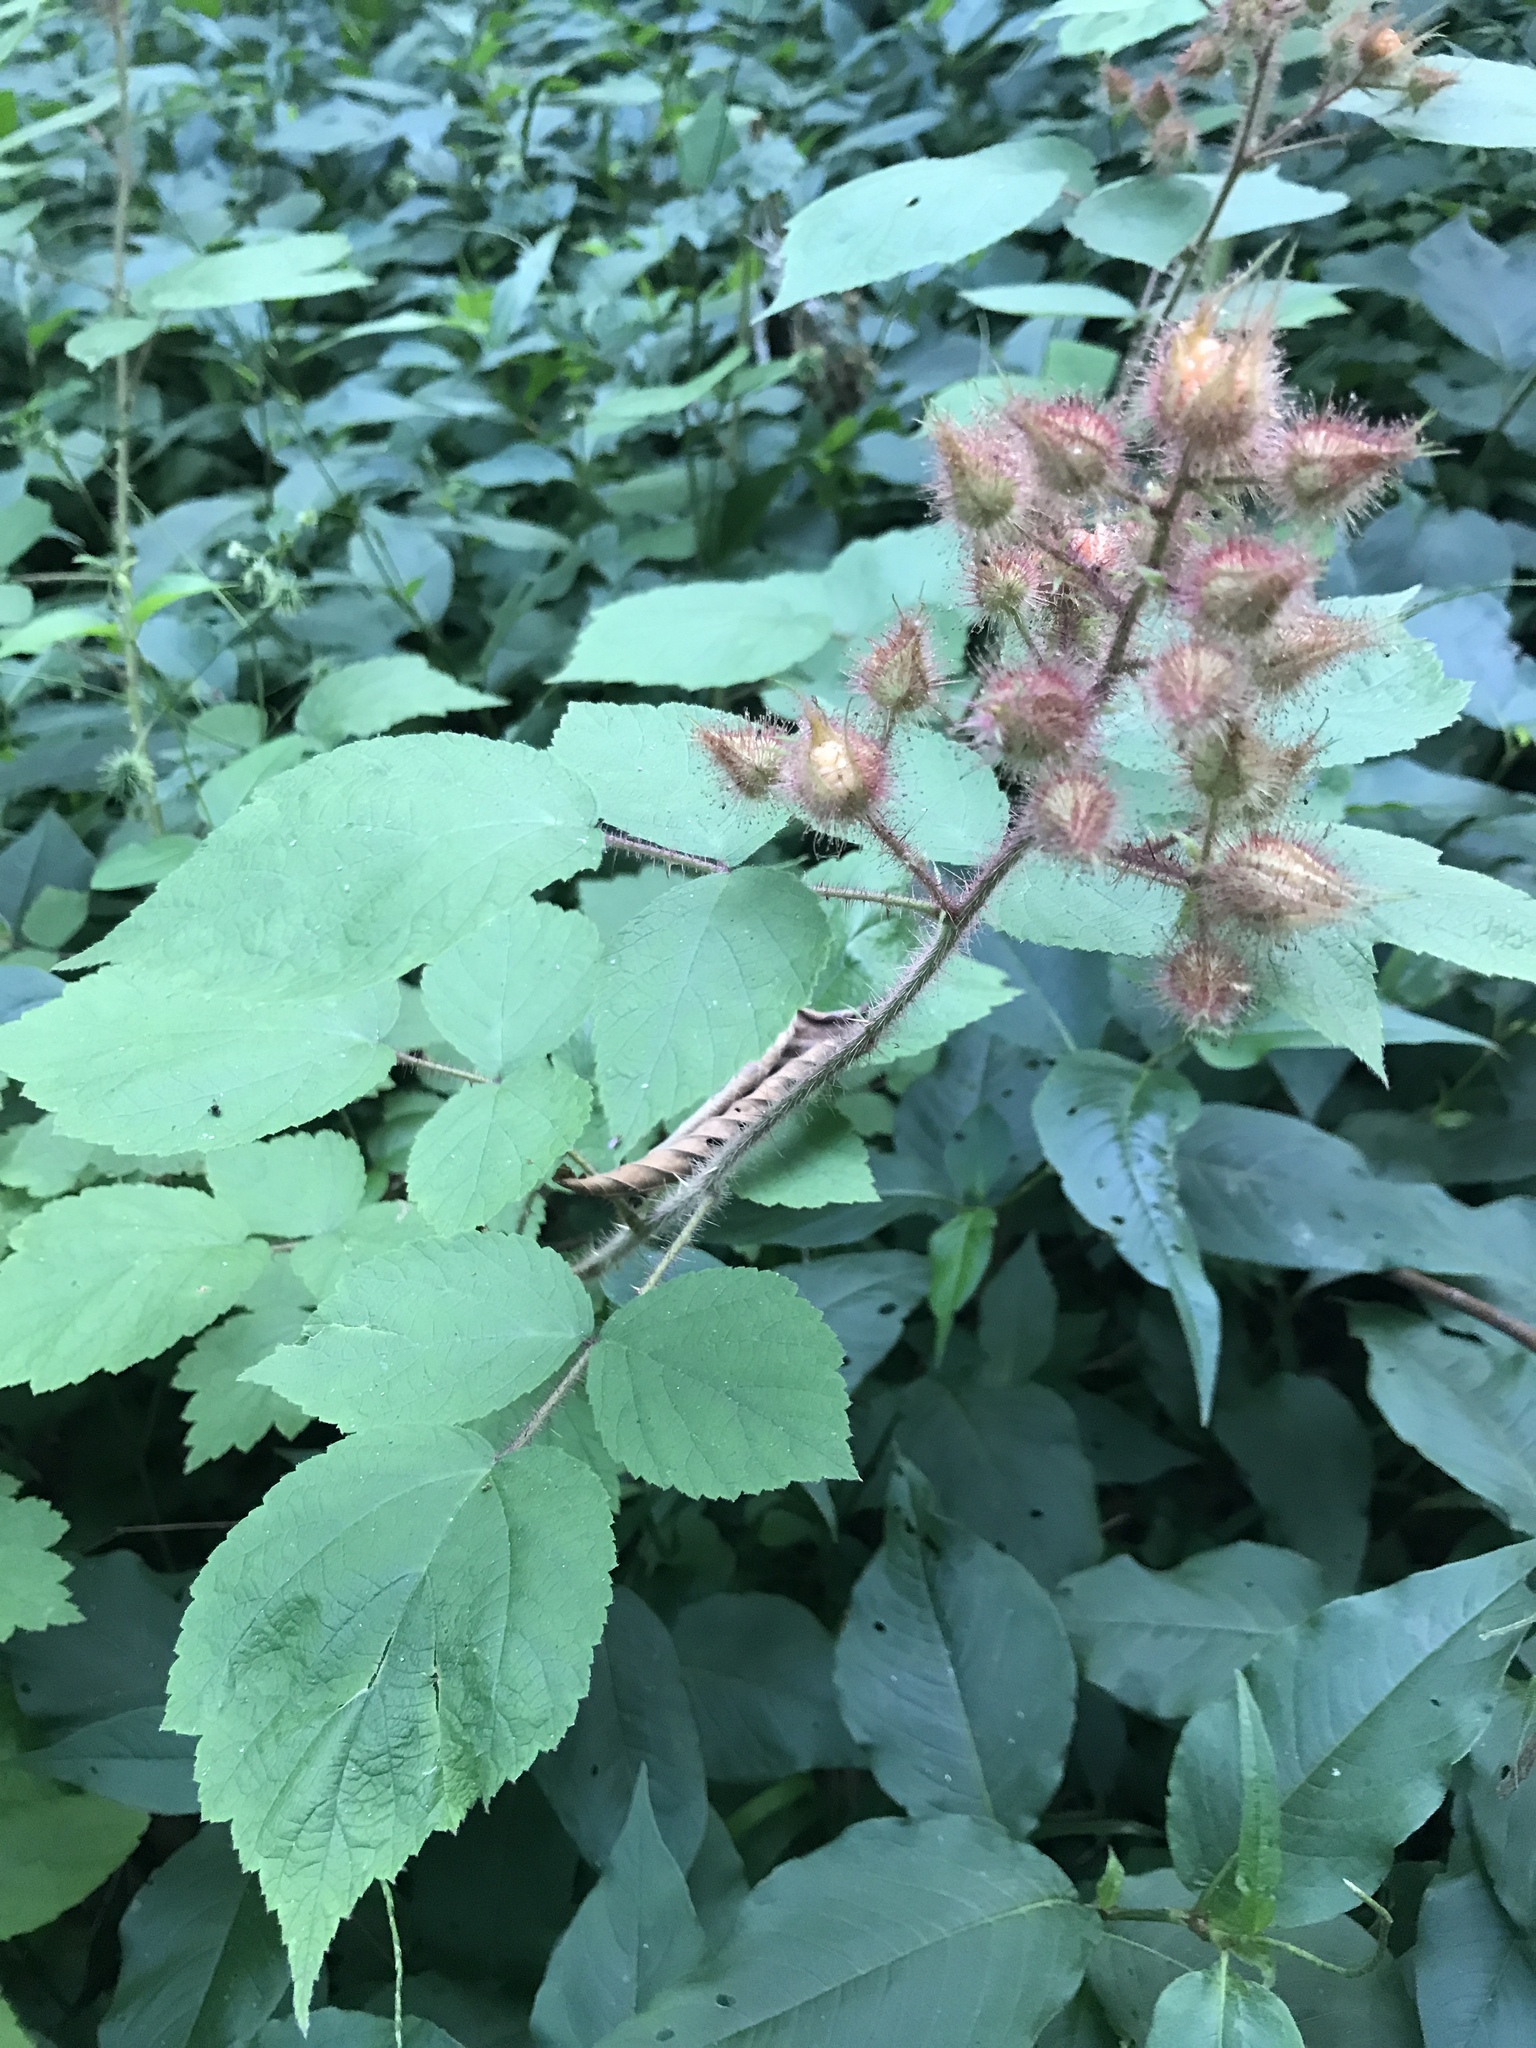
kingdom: Plantae
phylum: Tracheophyta
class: Magnoliopsida
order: Rosales
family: Rosaceae
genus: Rubus
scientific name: Rubus phoenicolasius
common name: Japanese wineberry
